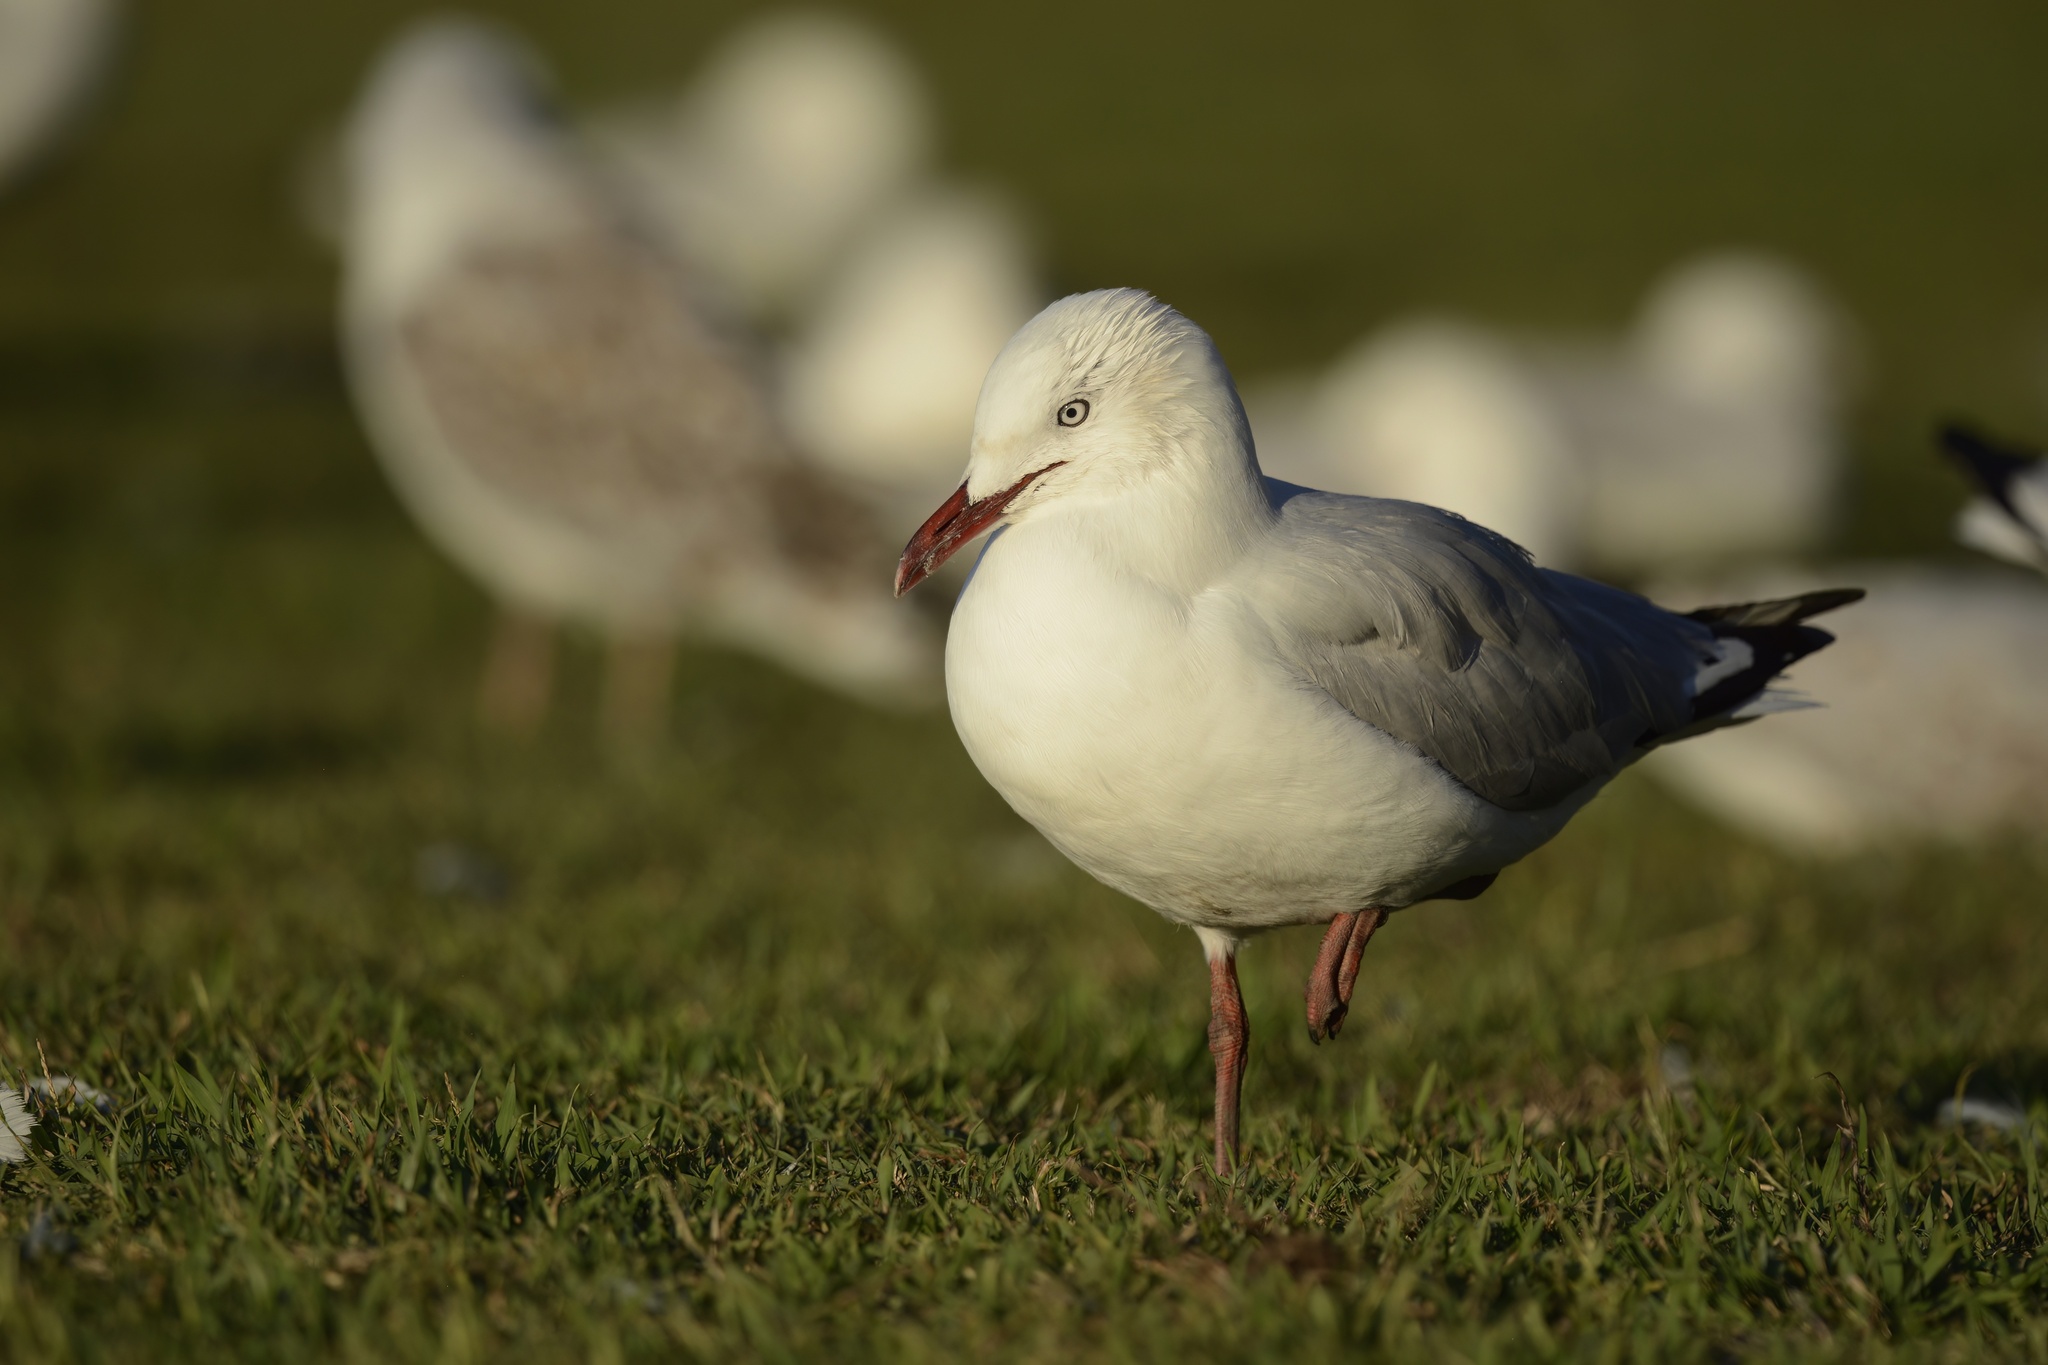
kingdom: Animalia
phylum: Chordata
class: Aves
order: Charadriiformes
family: Laridae
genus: Chroicocephalus
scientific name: Chroicocephalus novaehollandiae
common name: Silver gull
